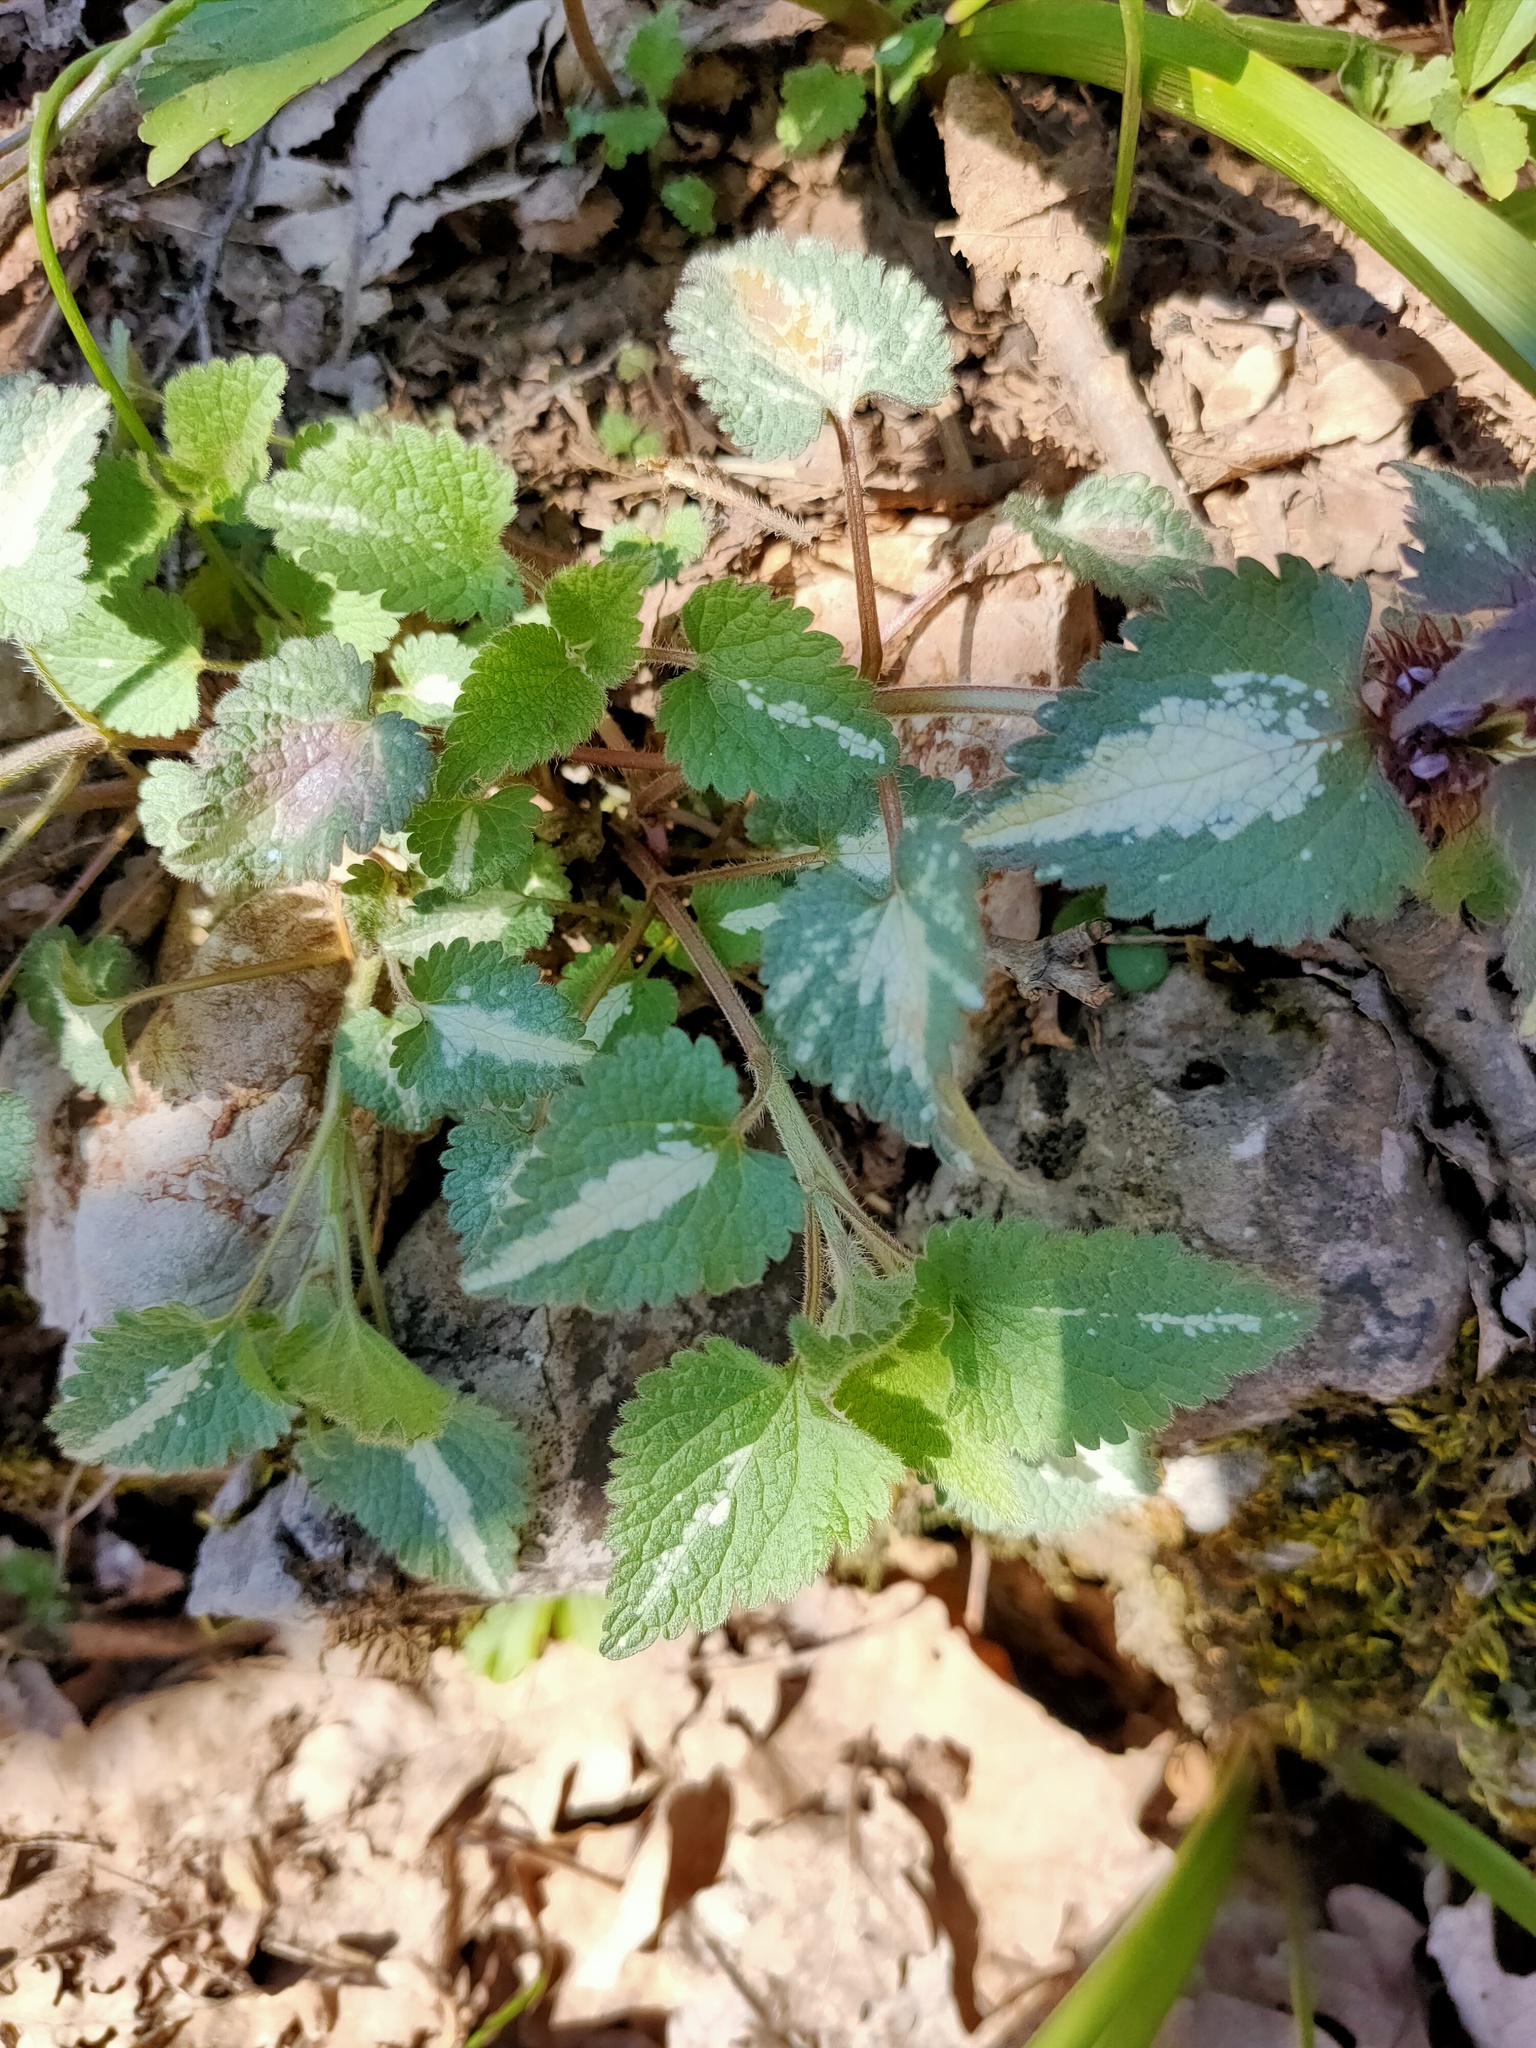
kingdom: Plantae
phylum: Tracheophyta
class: Magnoliopsida
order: Lamiales
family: Lamiaceae
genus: Lamium
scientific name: Lamium maculatum
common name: Spotted dead-nettle
